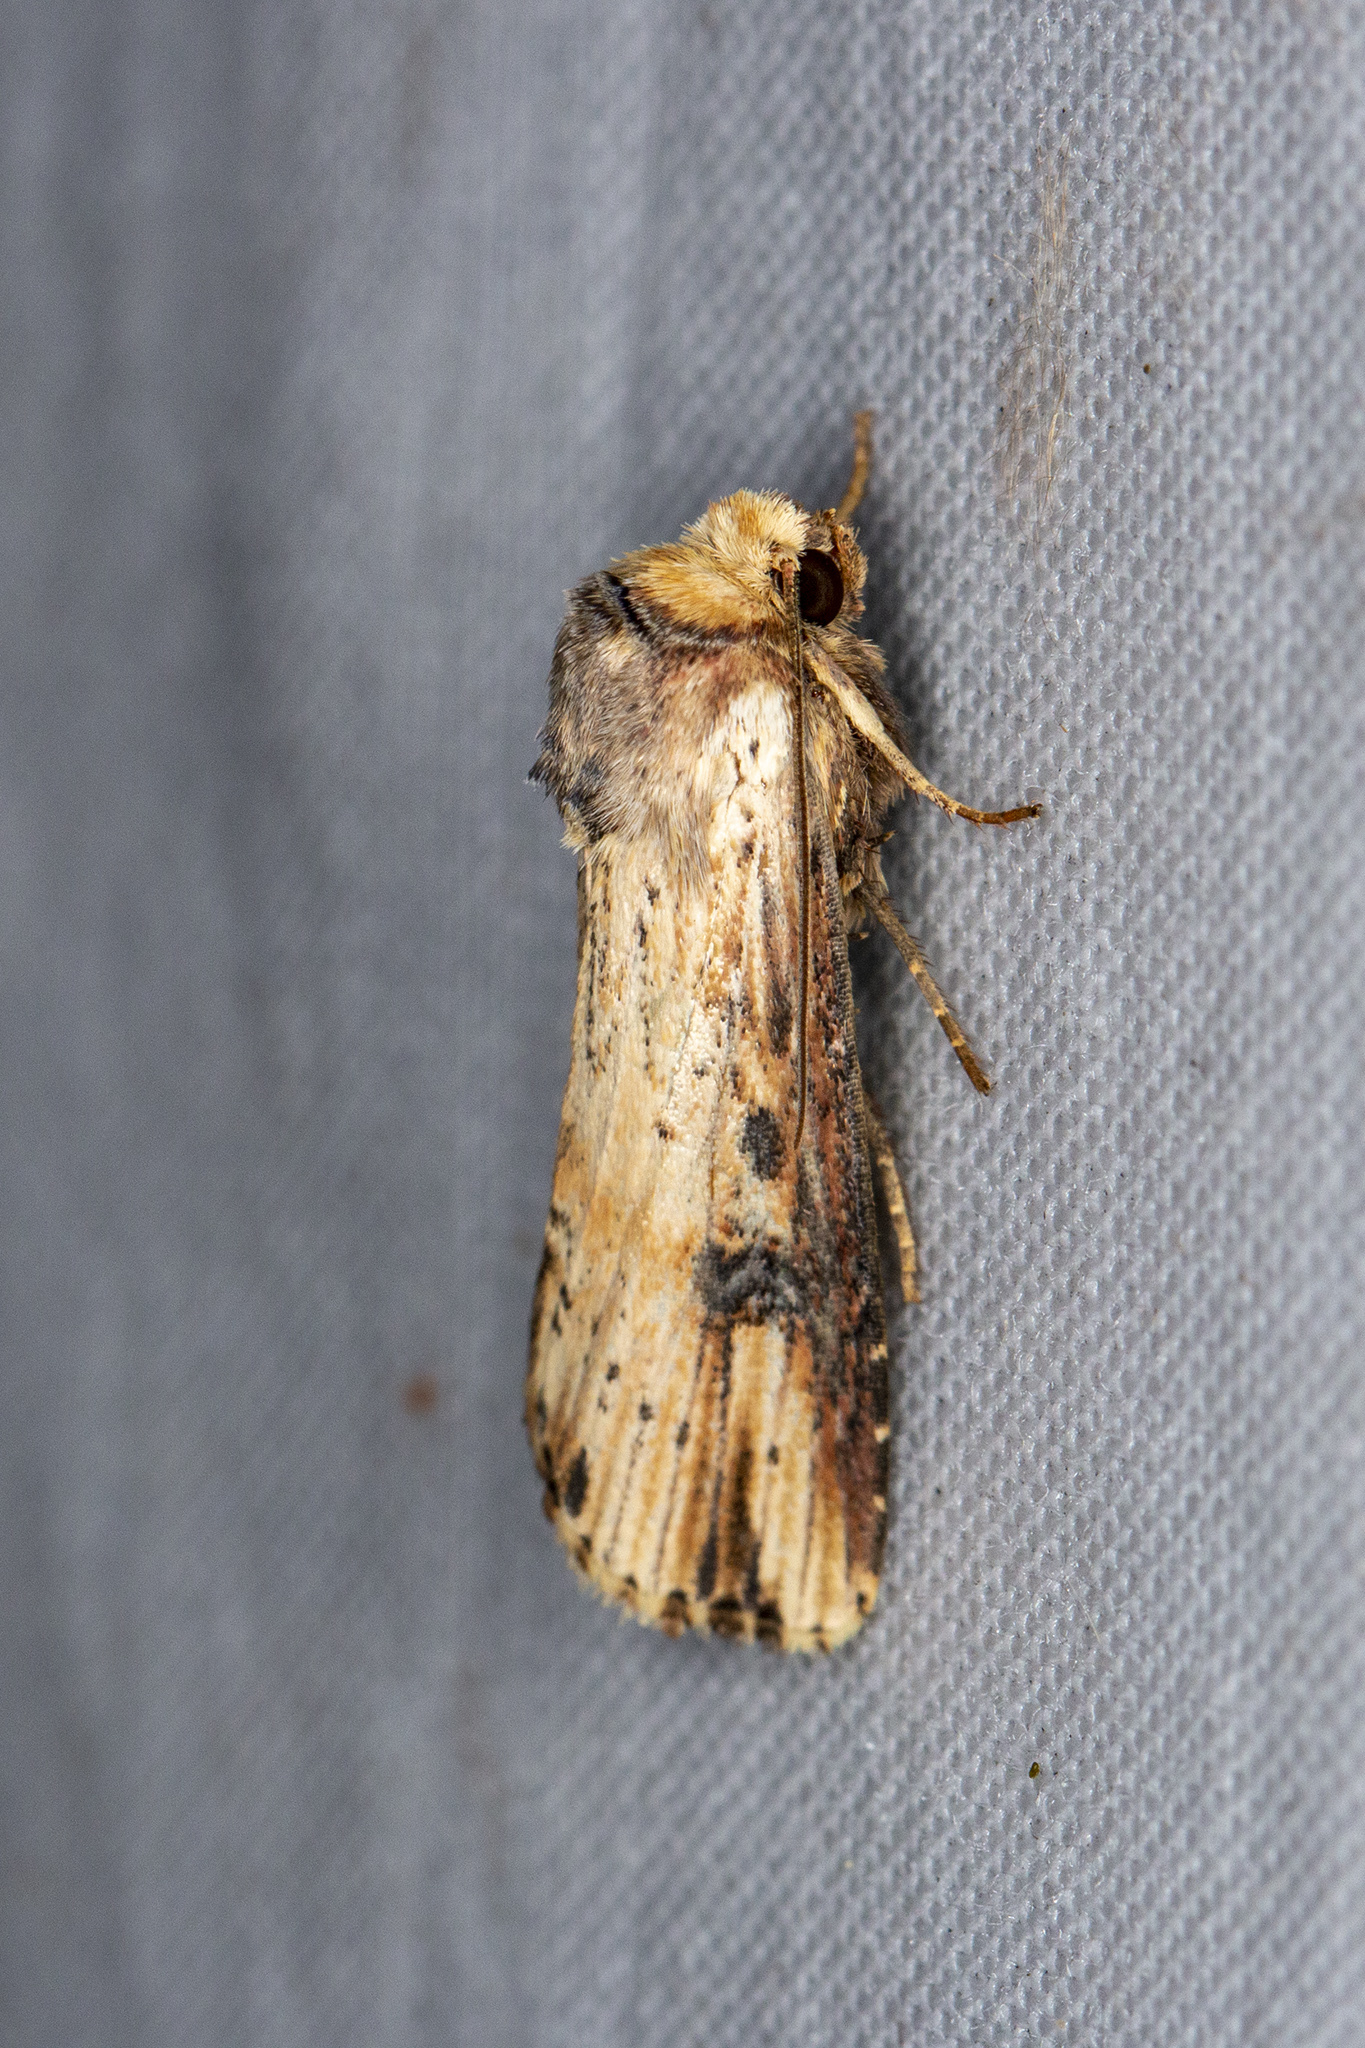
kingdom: Animalia
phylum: Arthropoda
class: Insecta
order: Lepidoptera
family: Noctuidae
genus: Axylia
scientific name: Axylia putris
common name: Flame
